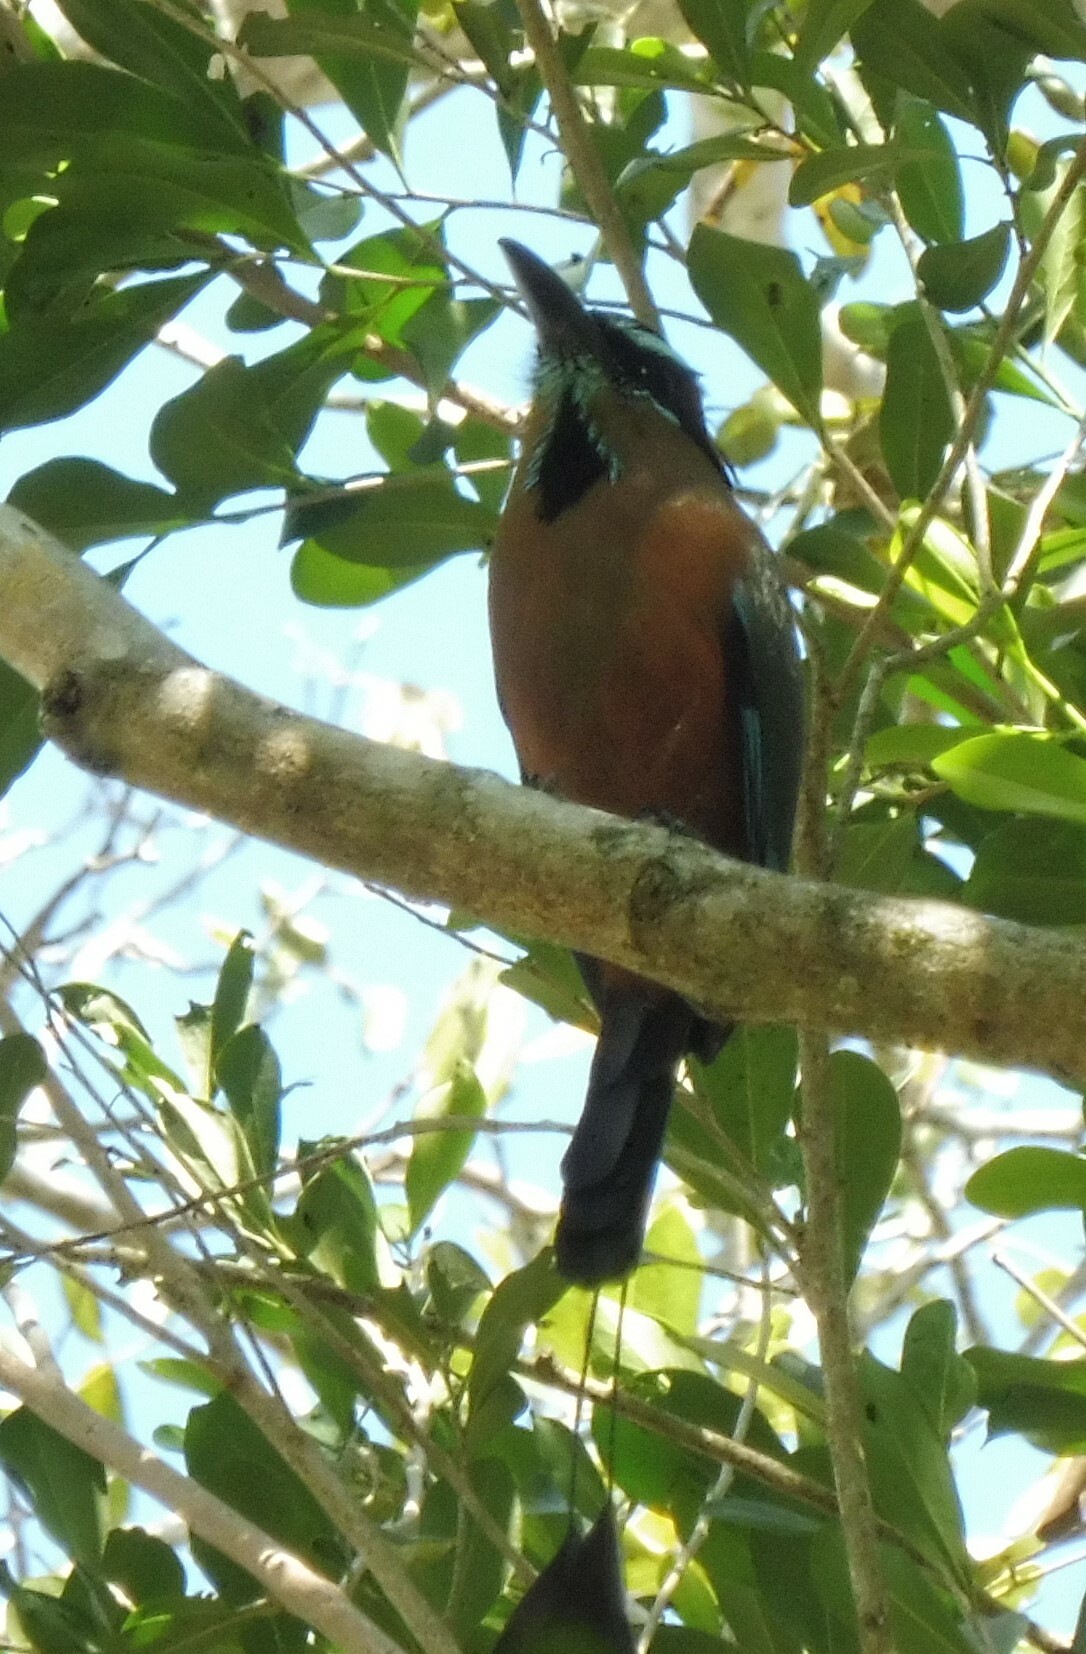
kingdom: Animalia
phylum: Chordata
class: Aves
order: Coraciiformes
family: Momotidae
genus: Eumomota
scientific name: Eumomota superciliosa
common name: Turquoise-browed motmot
